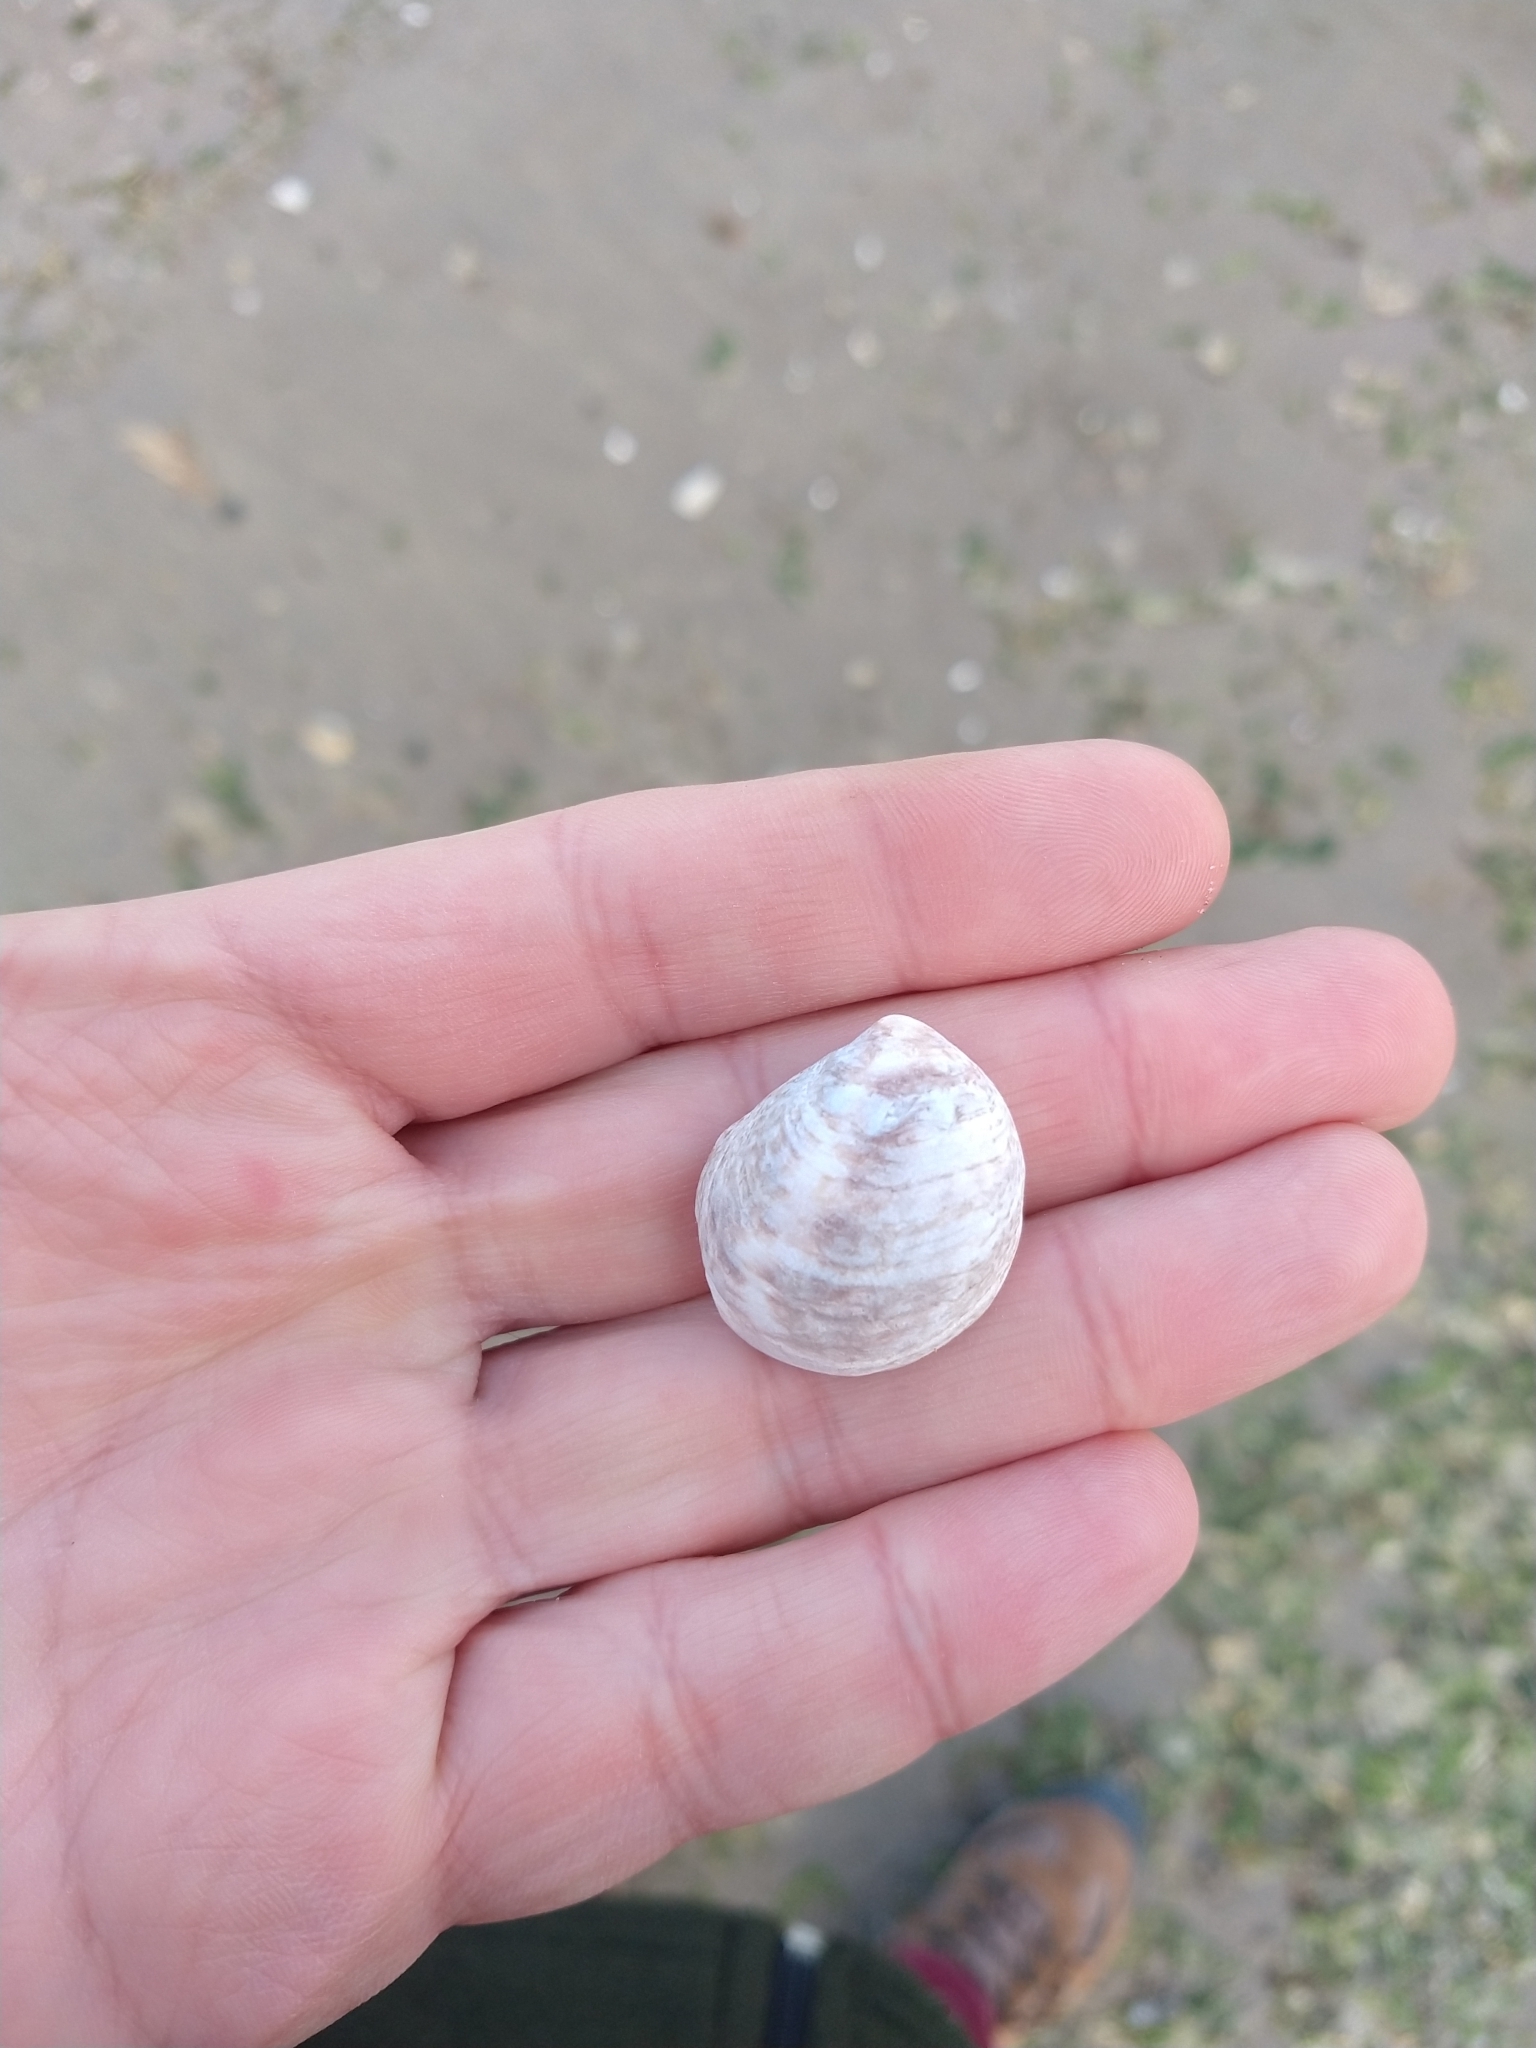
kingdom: Animalia
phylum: Mollusca
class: Gastropoda
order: Littorinimorpha
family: Calyptraeidae
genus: Crepipatella
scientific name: Crepipatella dilatata
